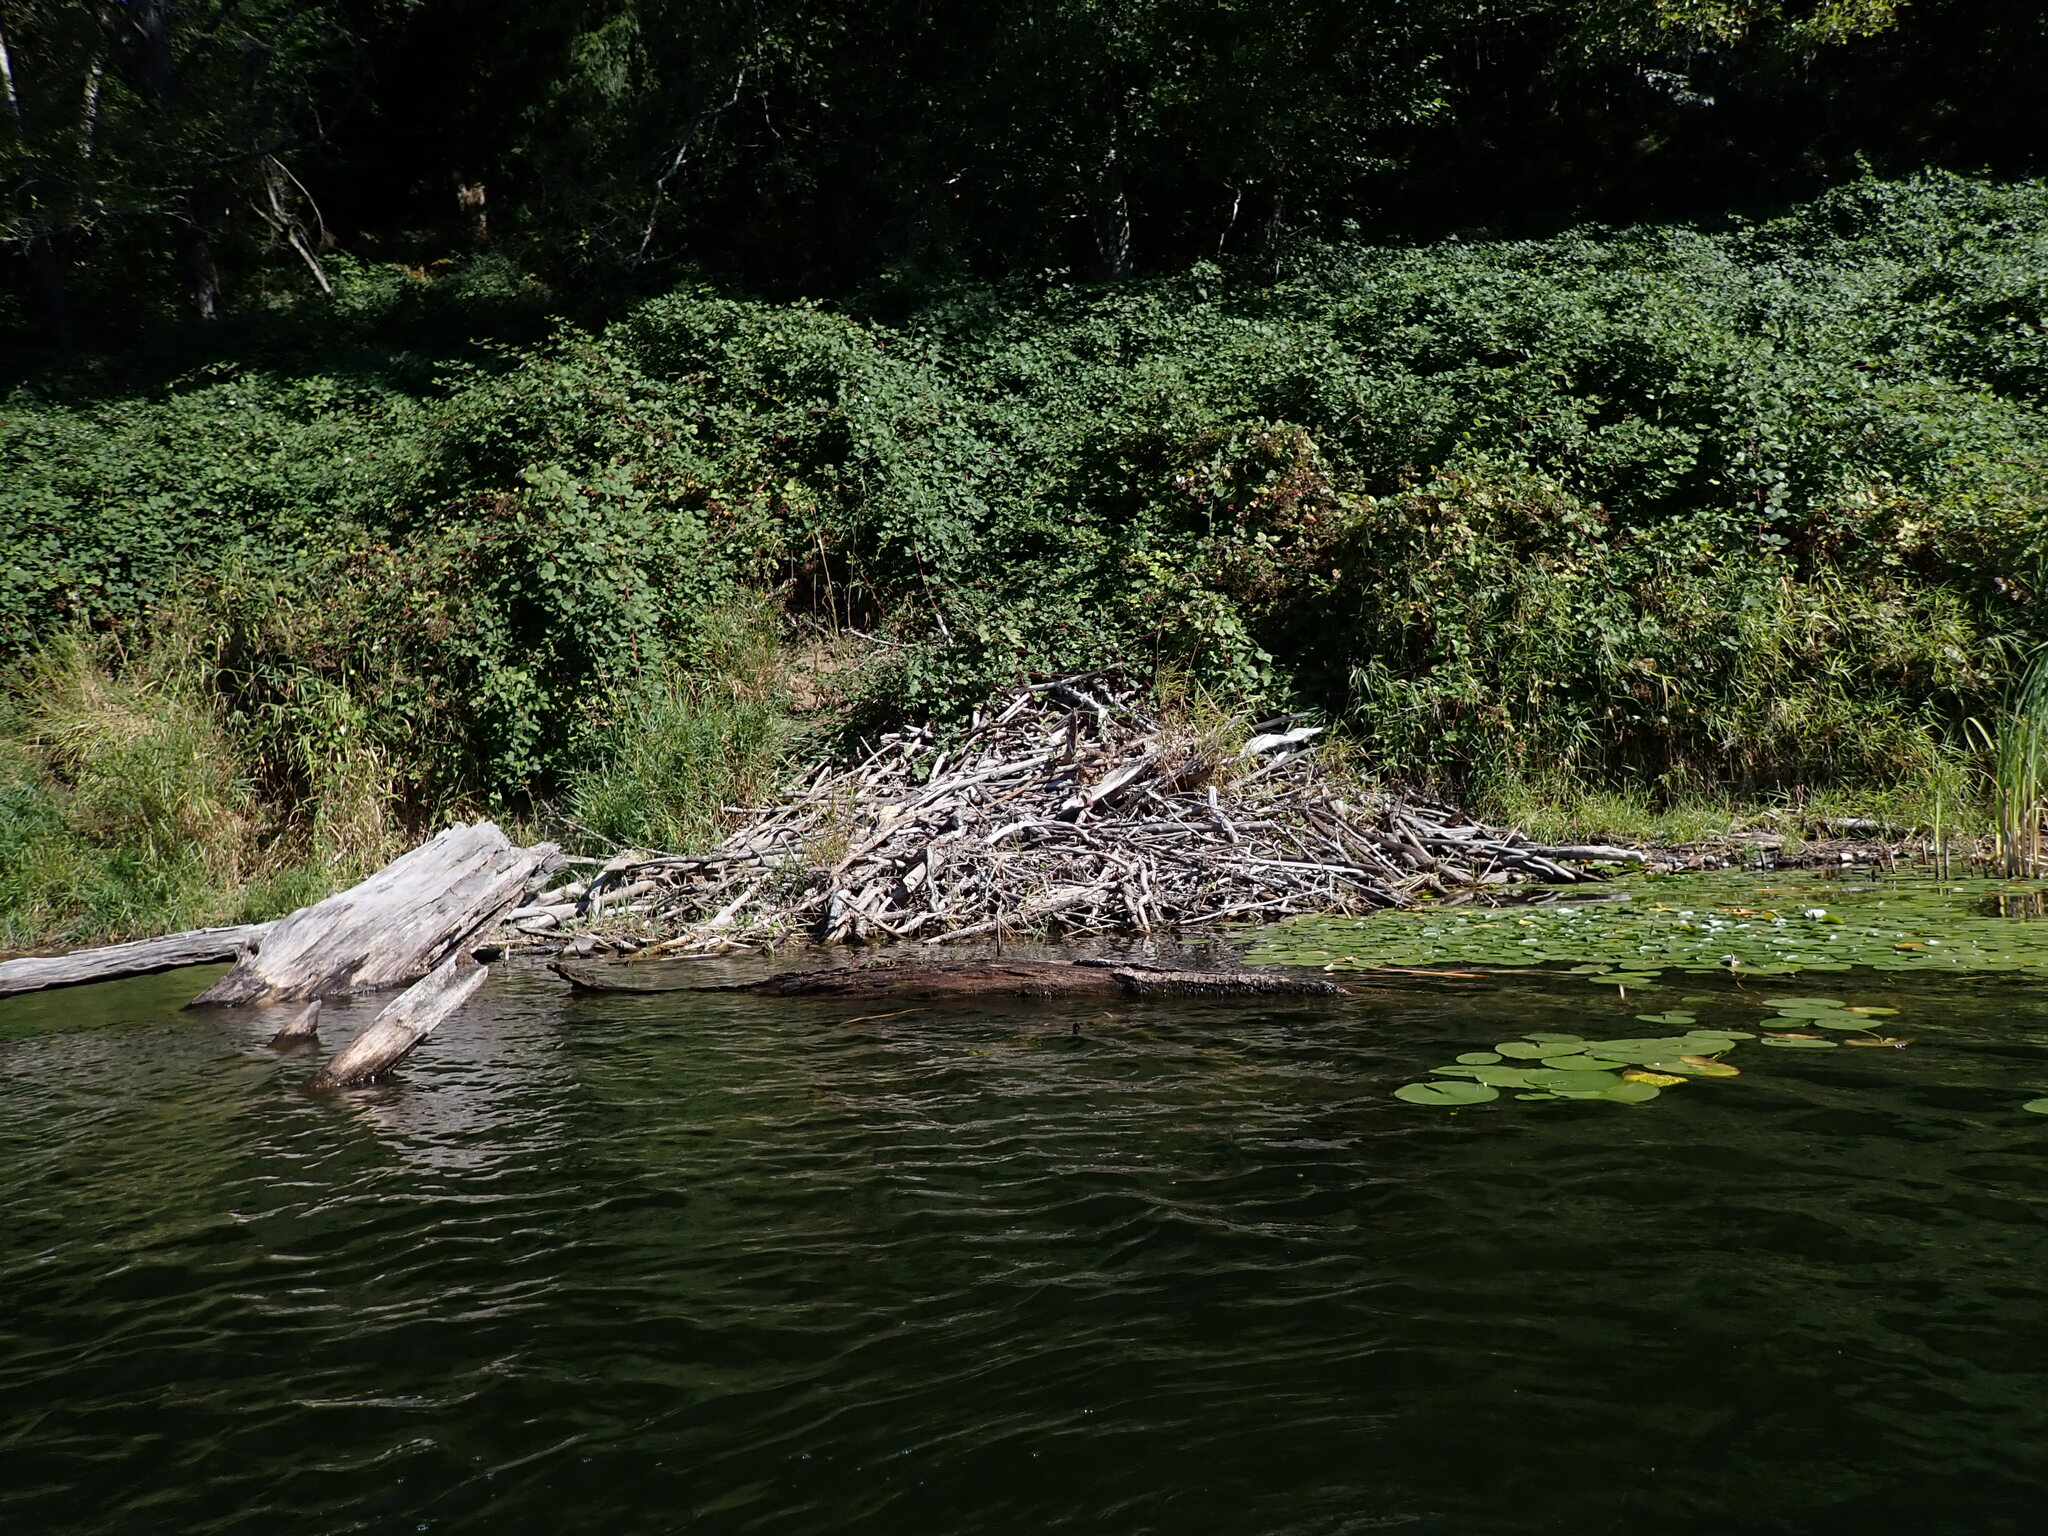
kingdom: Animalia
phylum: Chordata
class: Mammalia
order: Rodentia
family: Castoridae
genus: Castor
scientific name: Castor canadensis
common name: American beaver
